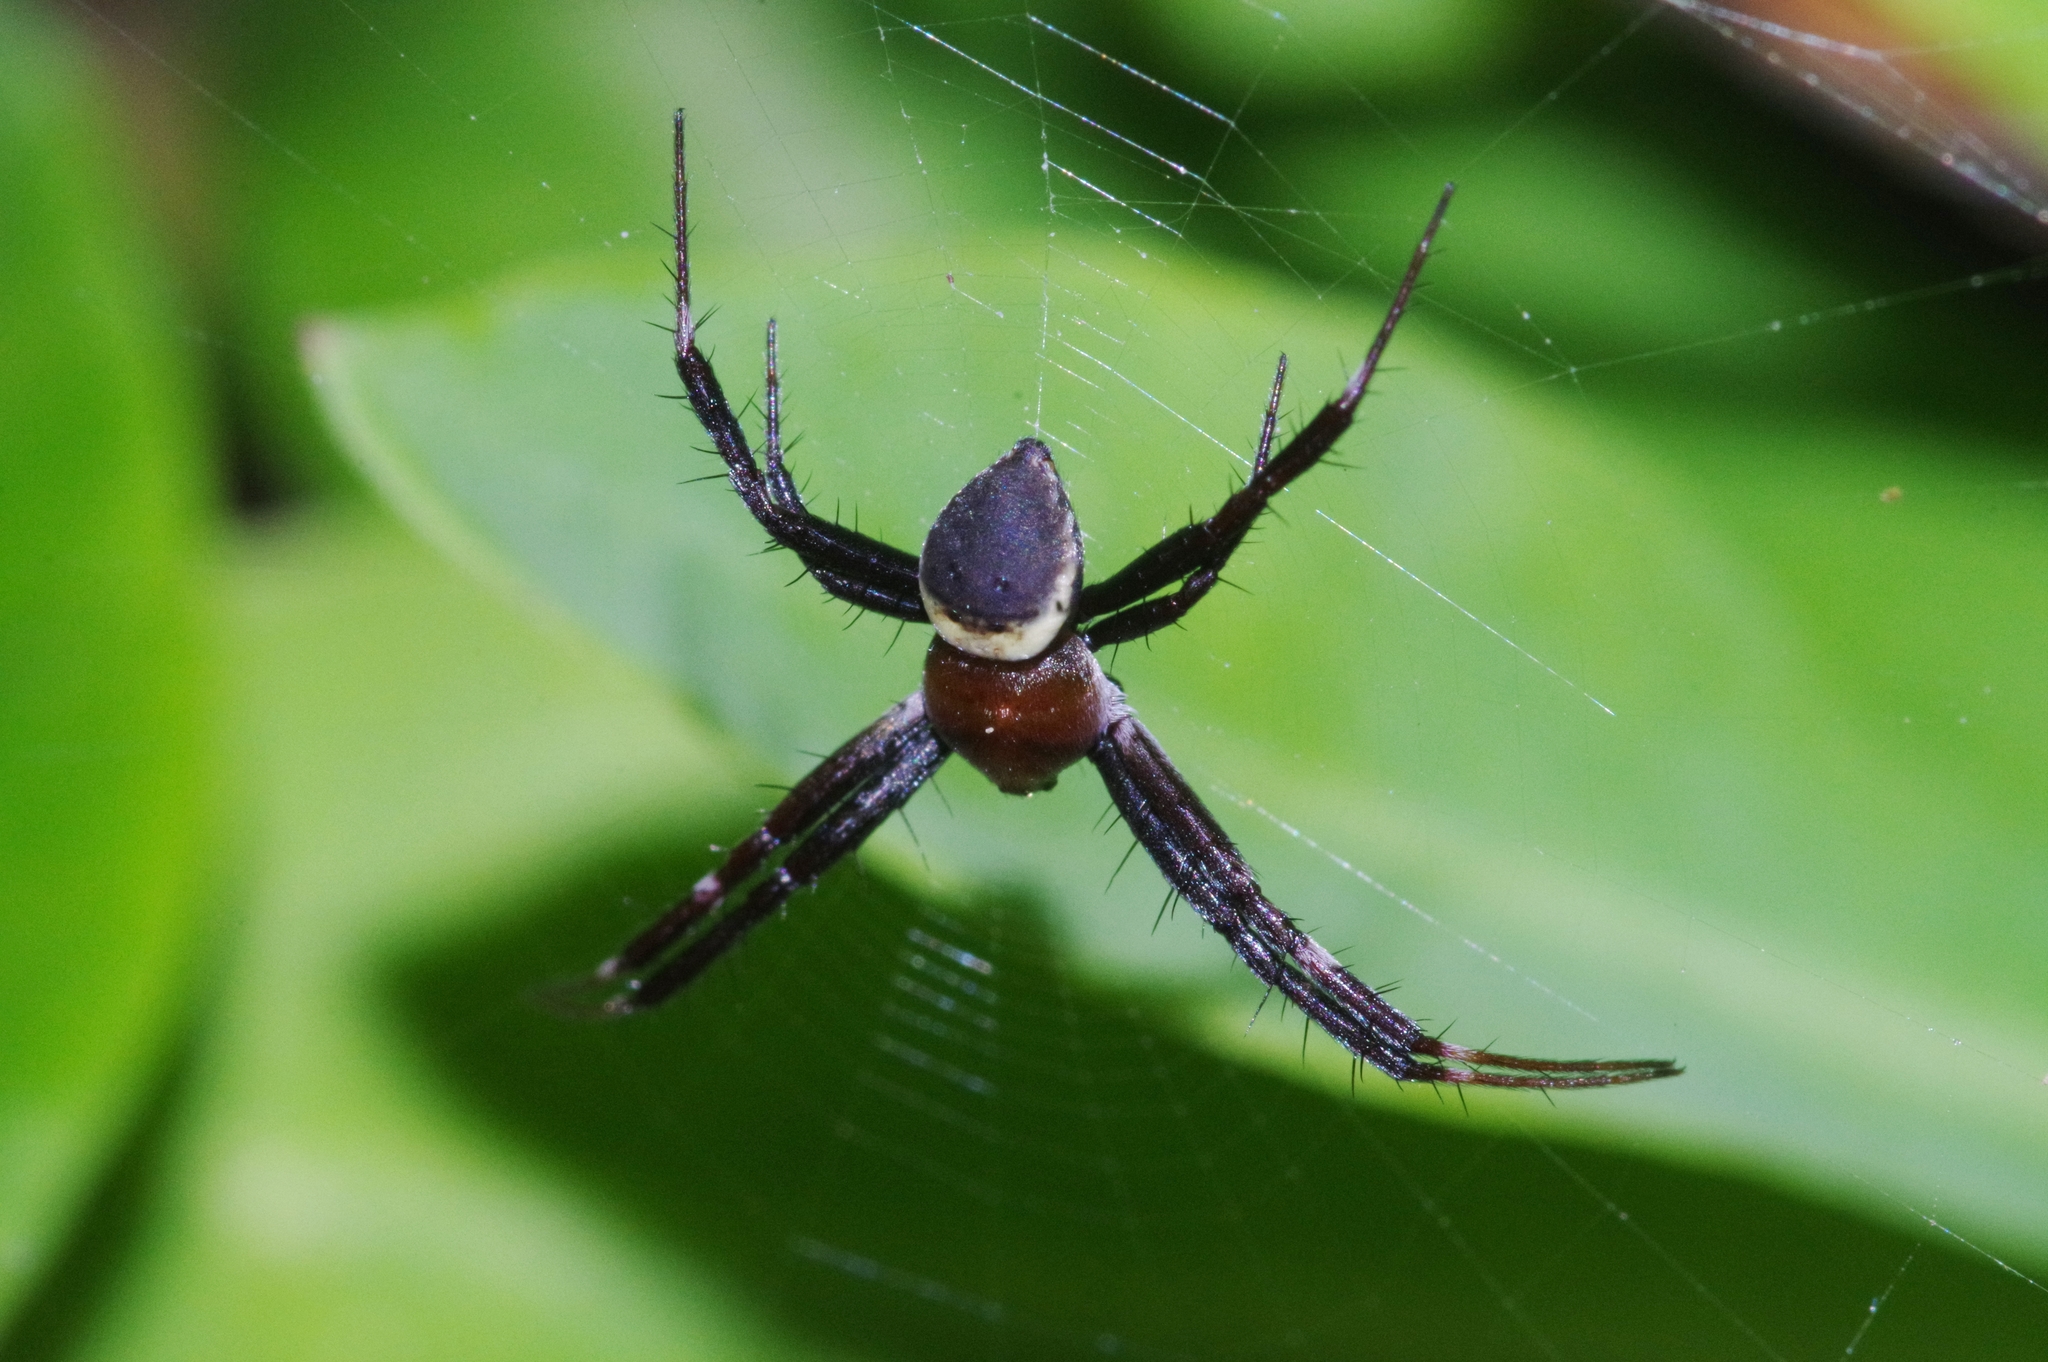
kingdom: Animalia
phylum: Arthropoda
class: Arachnida
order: Araneae
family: Araneidae
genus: Argiope
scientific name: Argiope aemula
